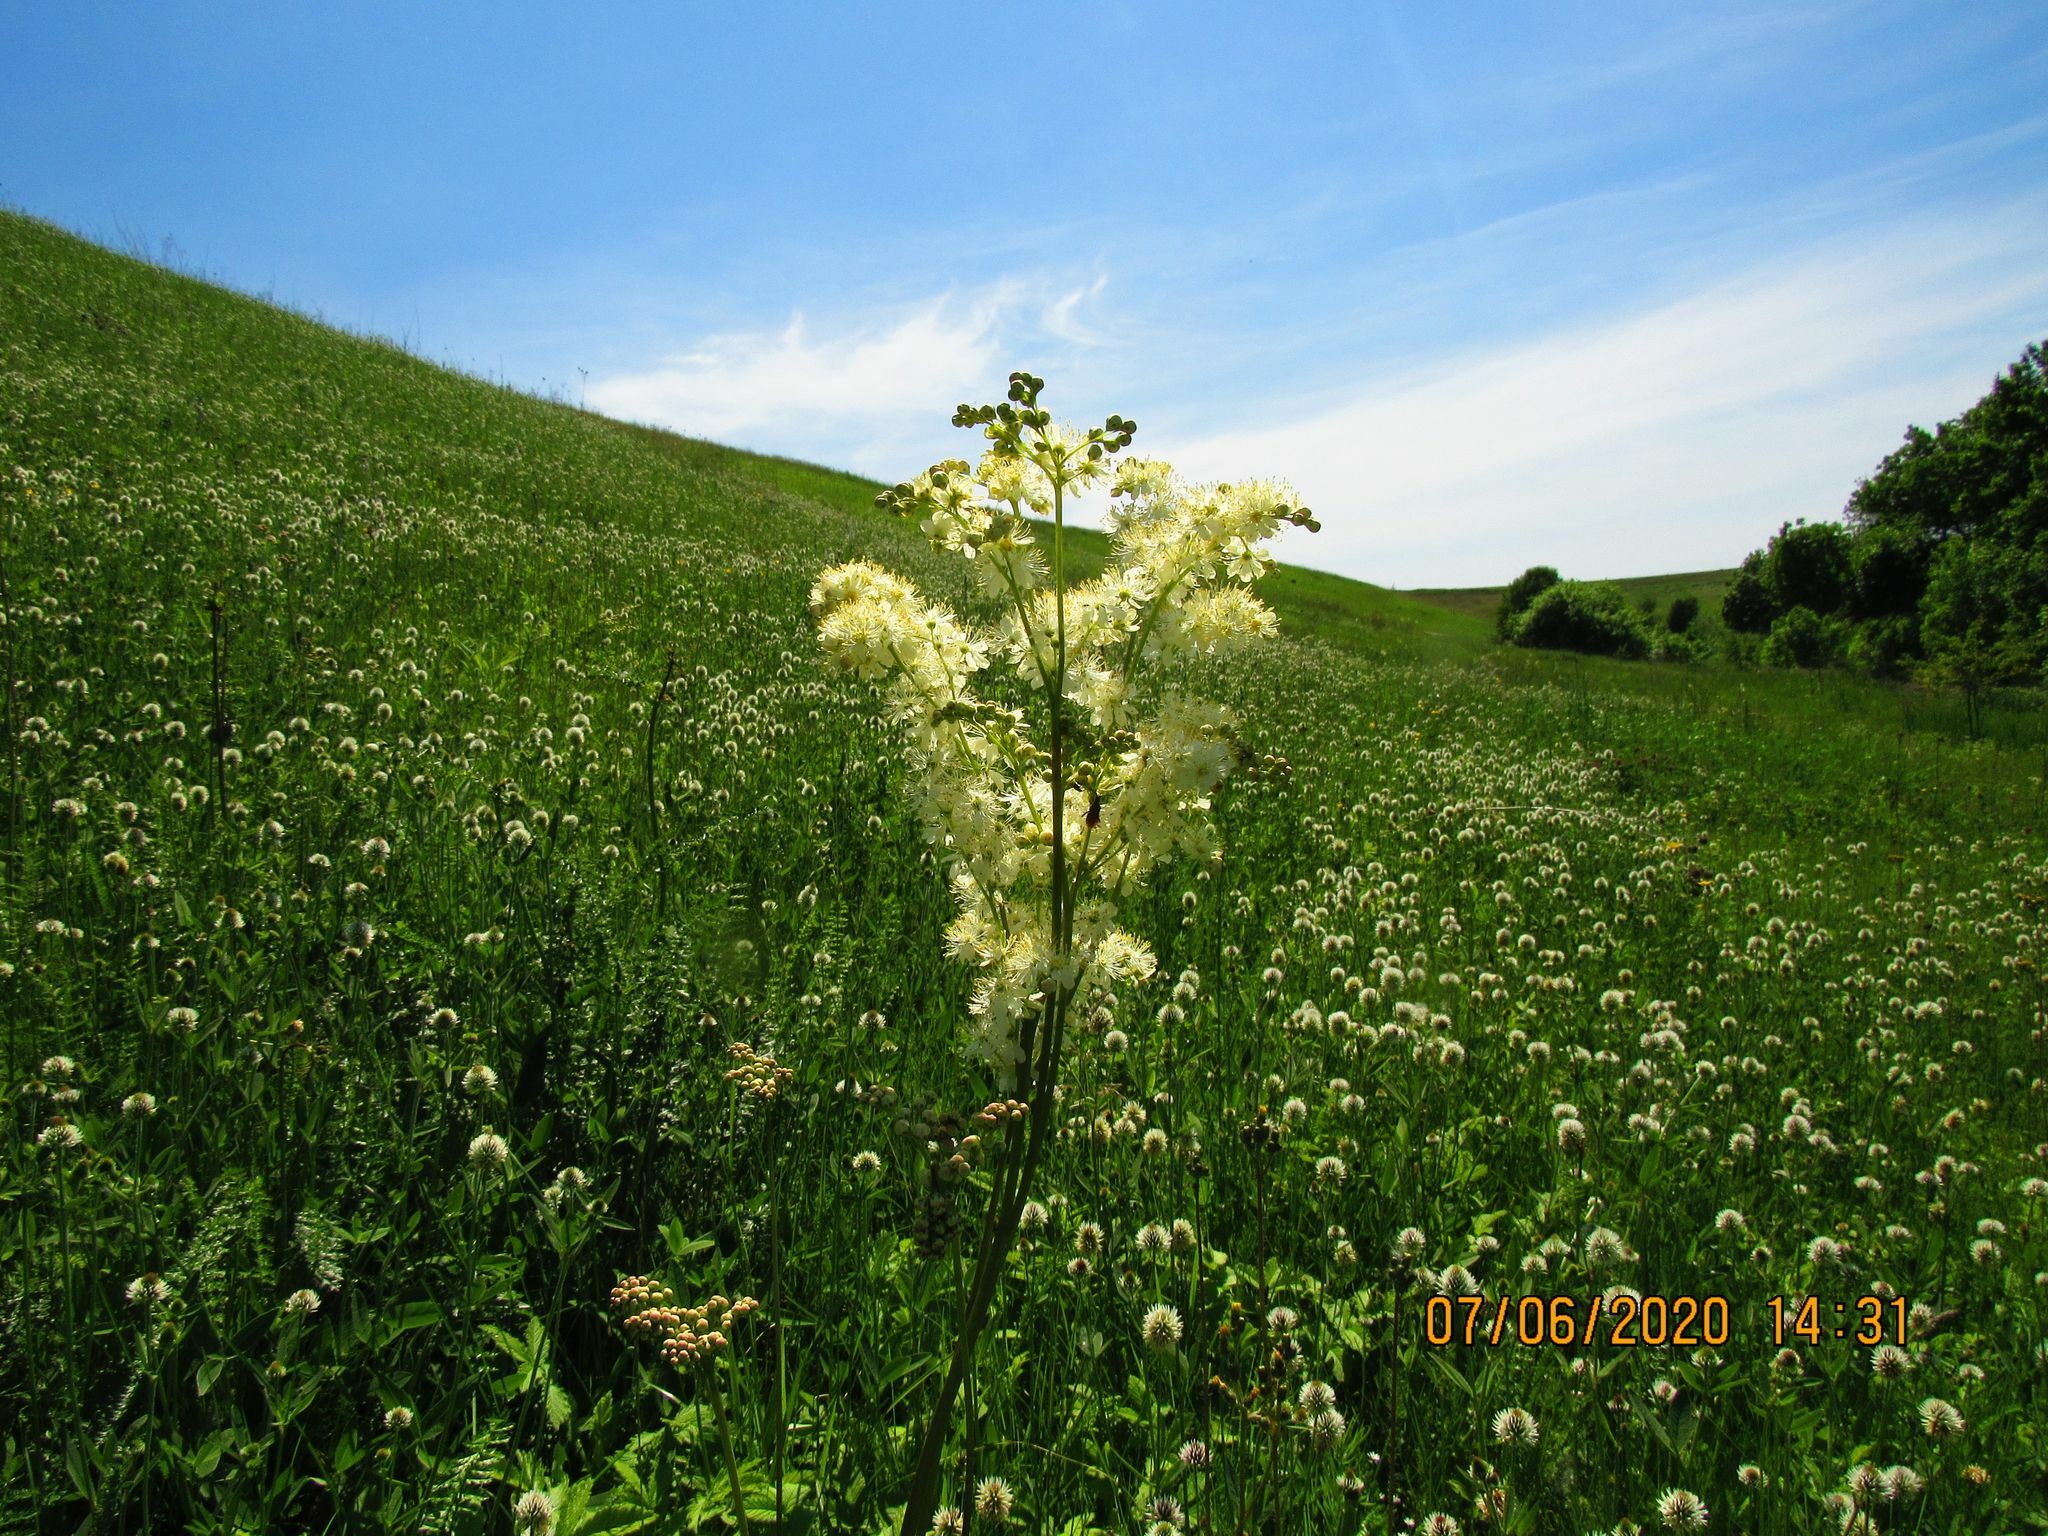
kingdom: Plantae
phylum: Tracheophyta
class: Magnoliopsida
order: Rosales
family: Rosaceae
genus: Filipendula
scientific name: Filipendula vulgaris
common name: Dropwort
